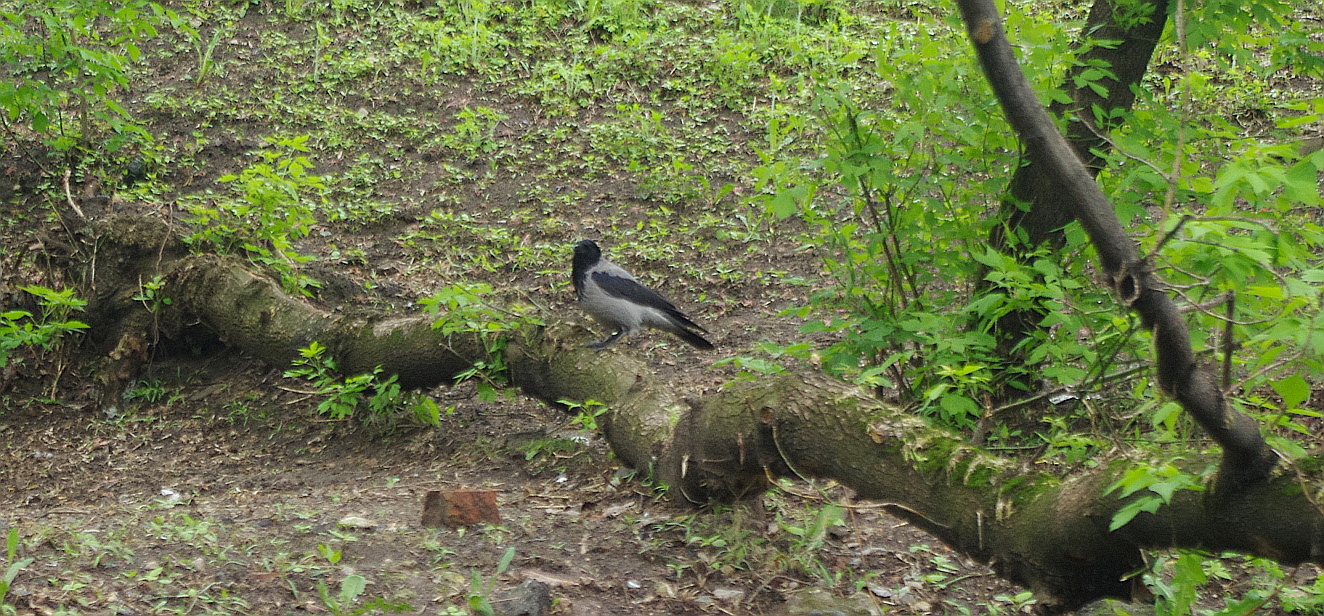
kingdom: Animalia
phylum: Chordata
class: Aves
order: Passeriformes
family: Corvidae
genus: Corvus
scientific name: Corvus cornix
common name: Hooded crow
